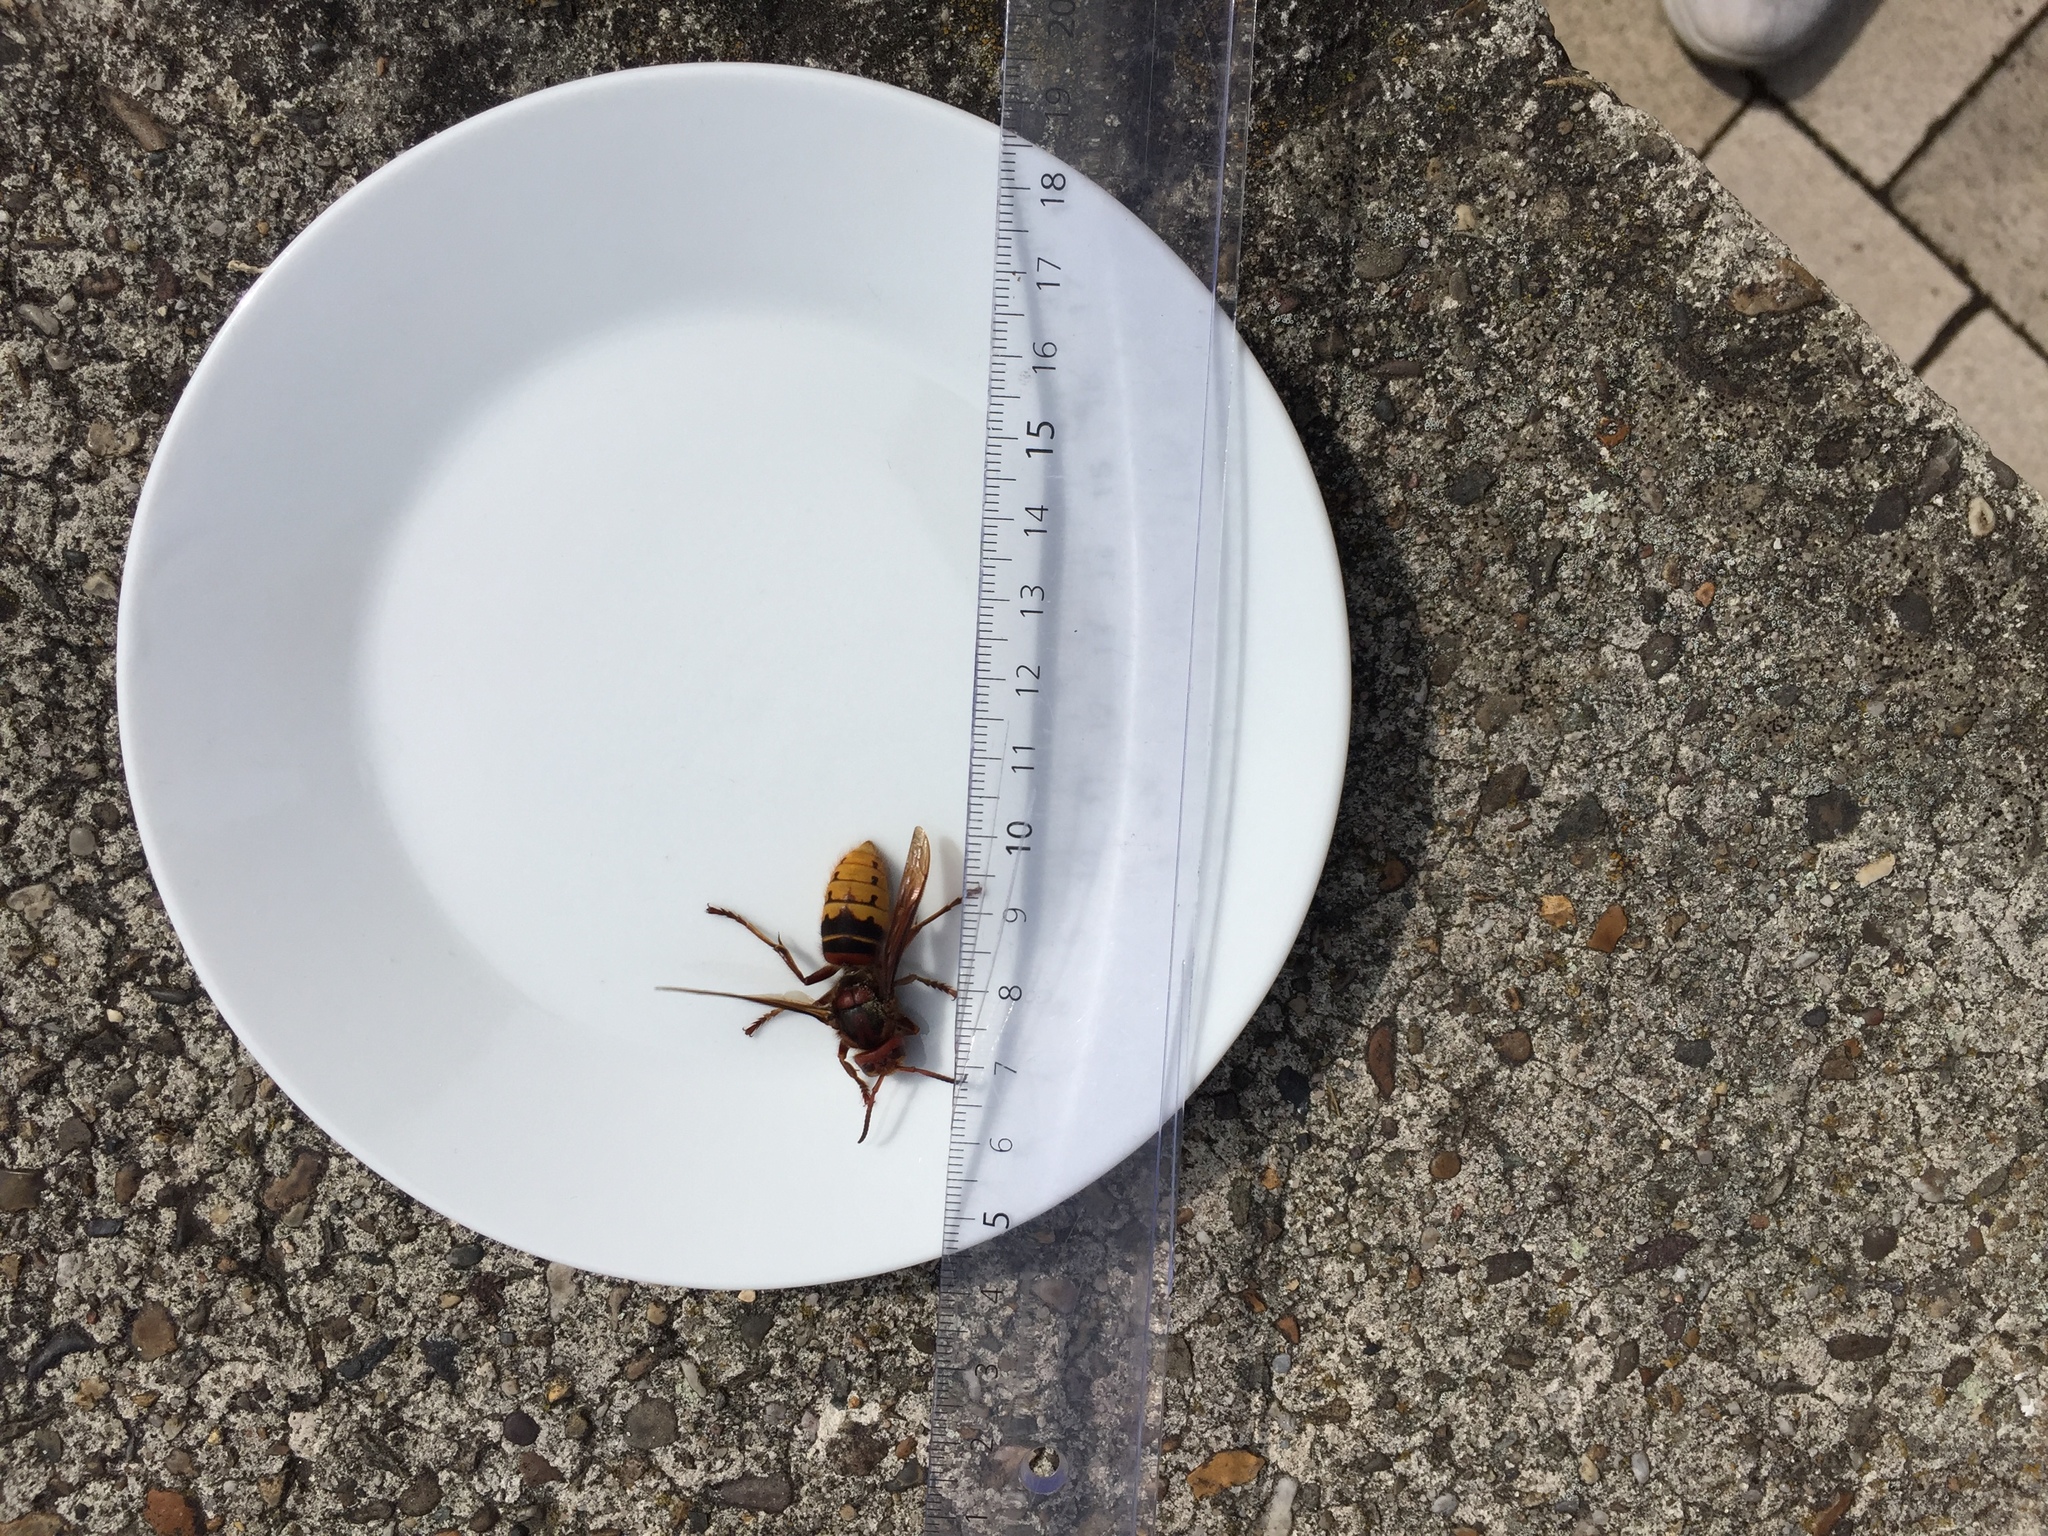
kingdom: Animalia
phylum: Arthropoda
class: Insecta
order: Hymenoptera
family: Vespidae
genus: Vespa
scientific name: Vespa crabro
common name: Hornet
